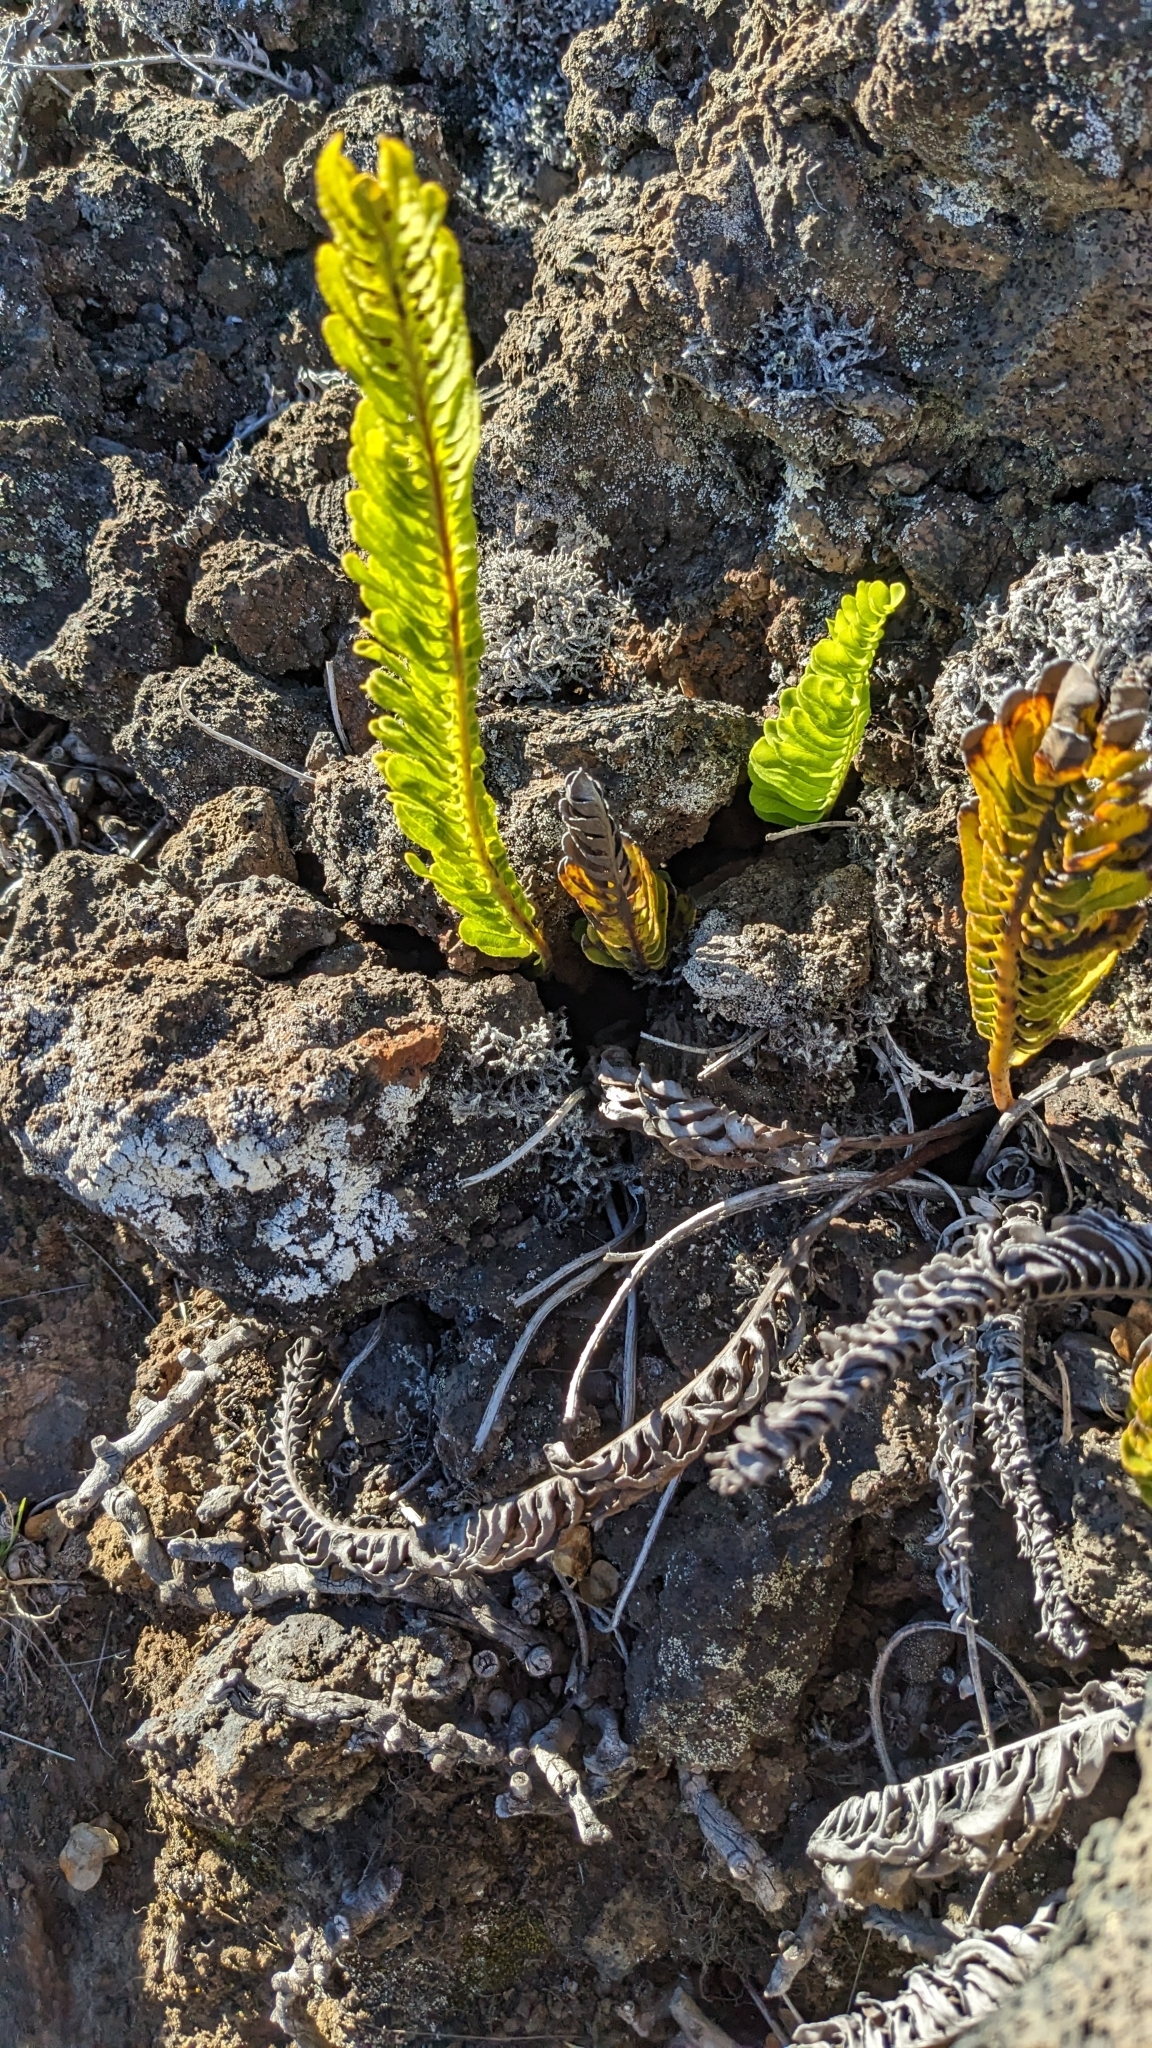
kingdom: Plantae
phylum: Tracheophyta
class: Polypodiopsida
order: Polypodiales
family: Polypodiaceae
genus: Polypodium
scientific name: Polypodium pellucidum
